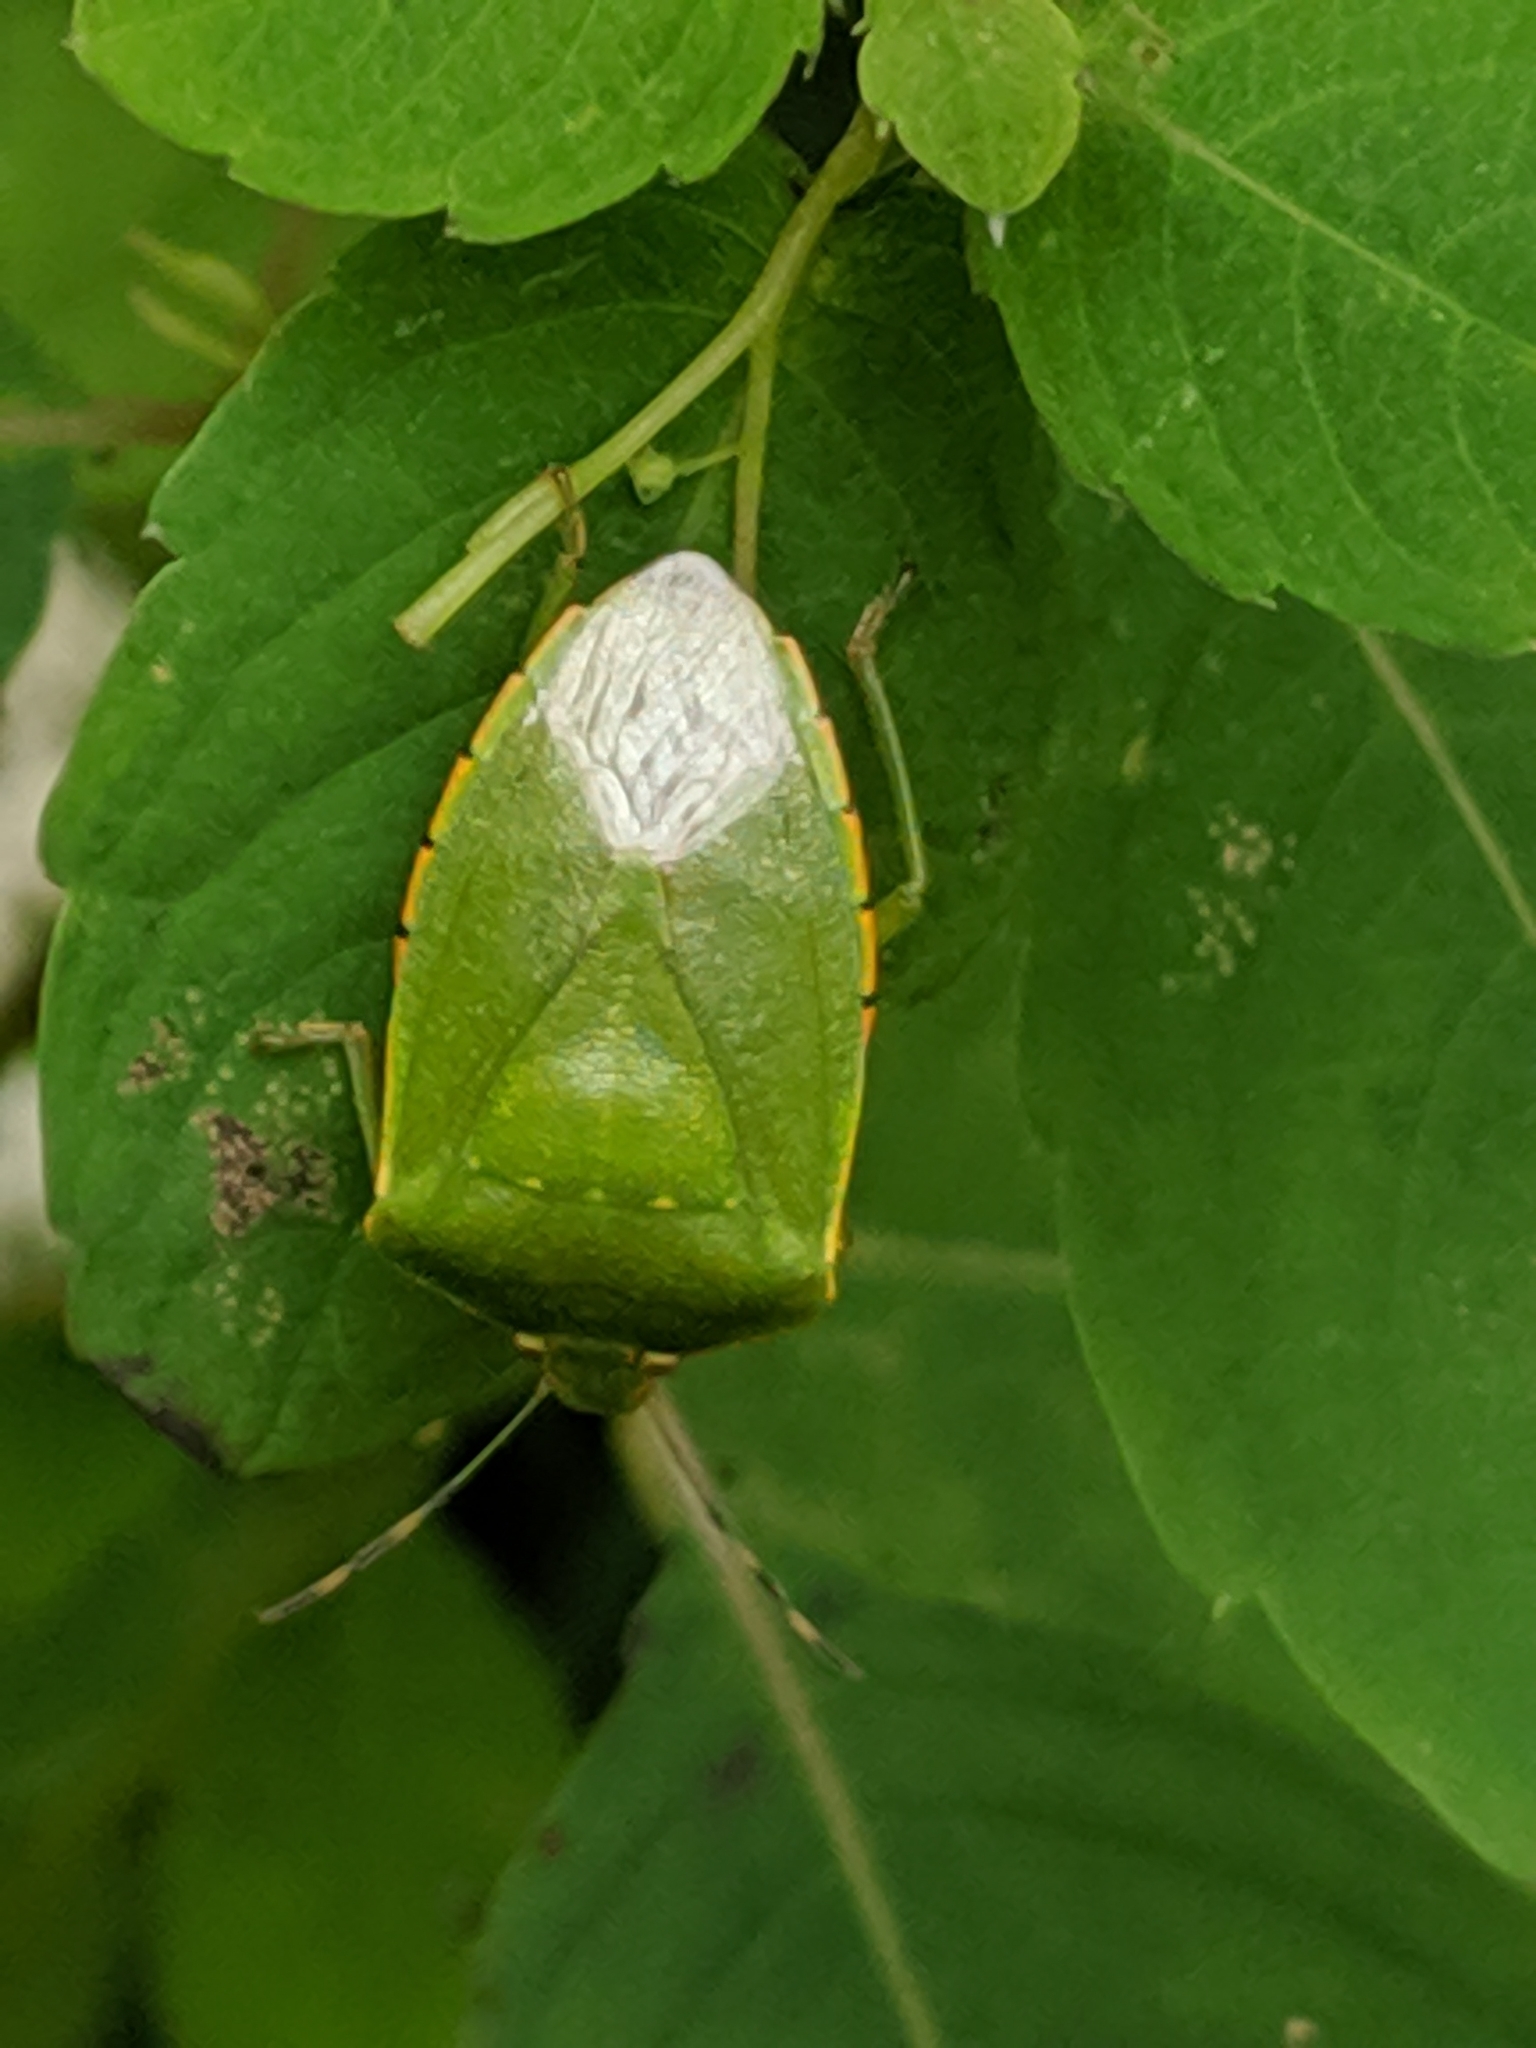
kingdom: Animalia
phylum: Arthropoda
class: Insecta
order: Hemiptera
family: Pentatomidae
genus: Chinavia
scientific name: Chinavia hilaris
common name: Green stink bug
